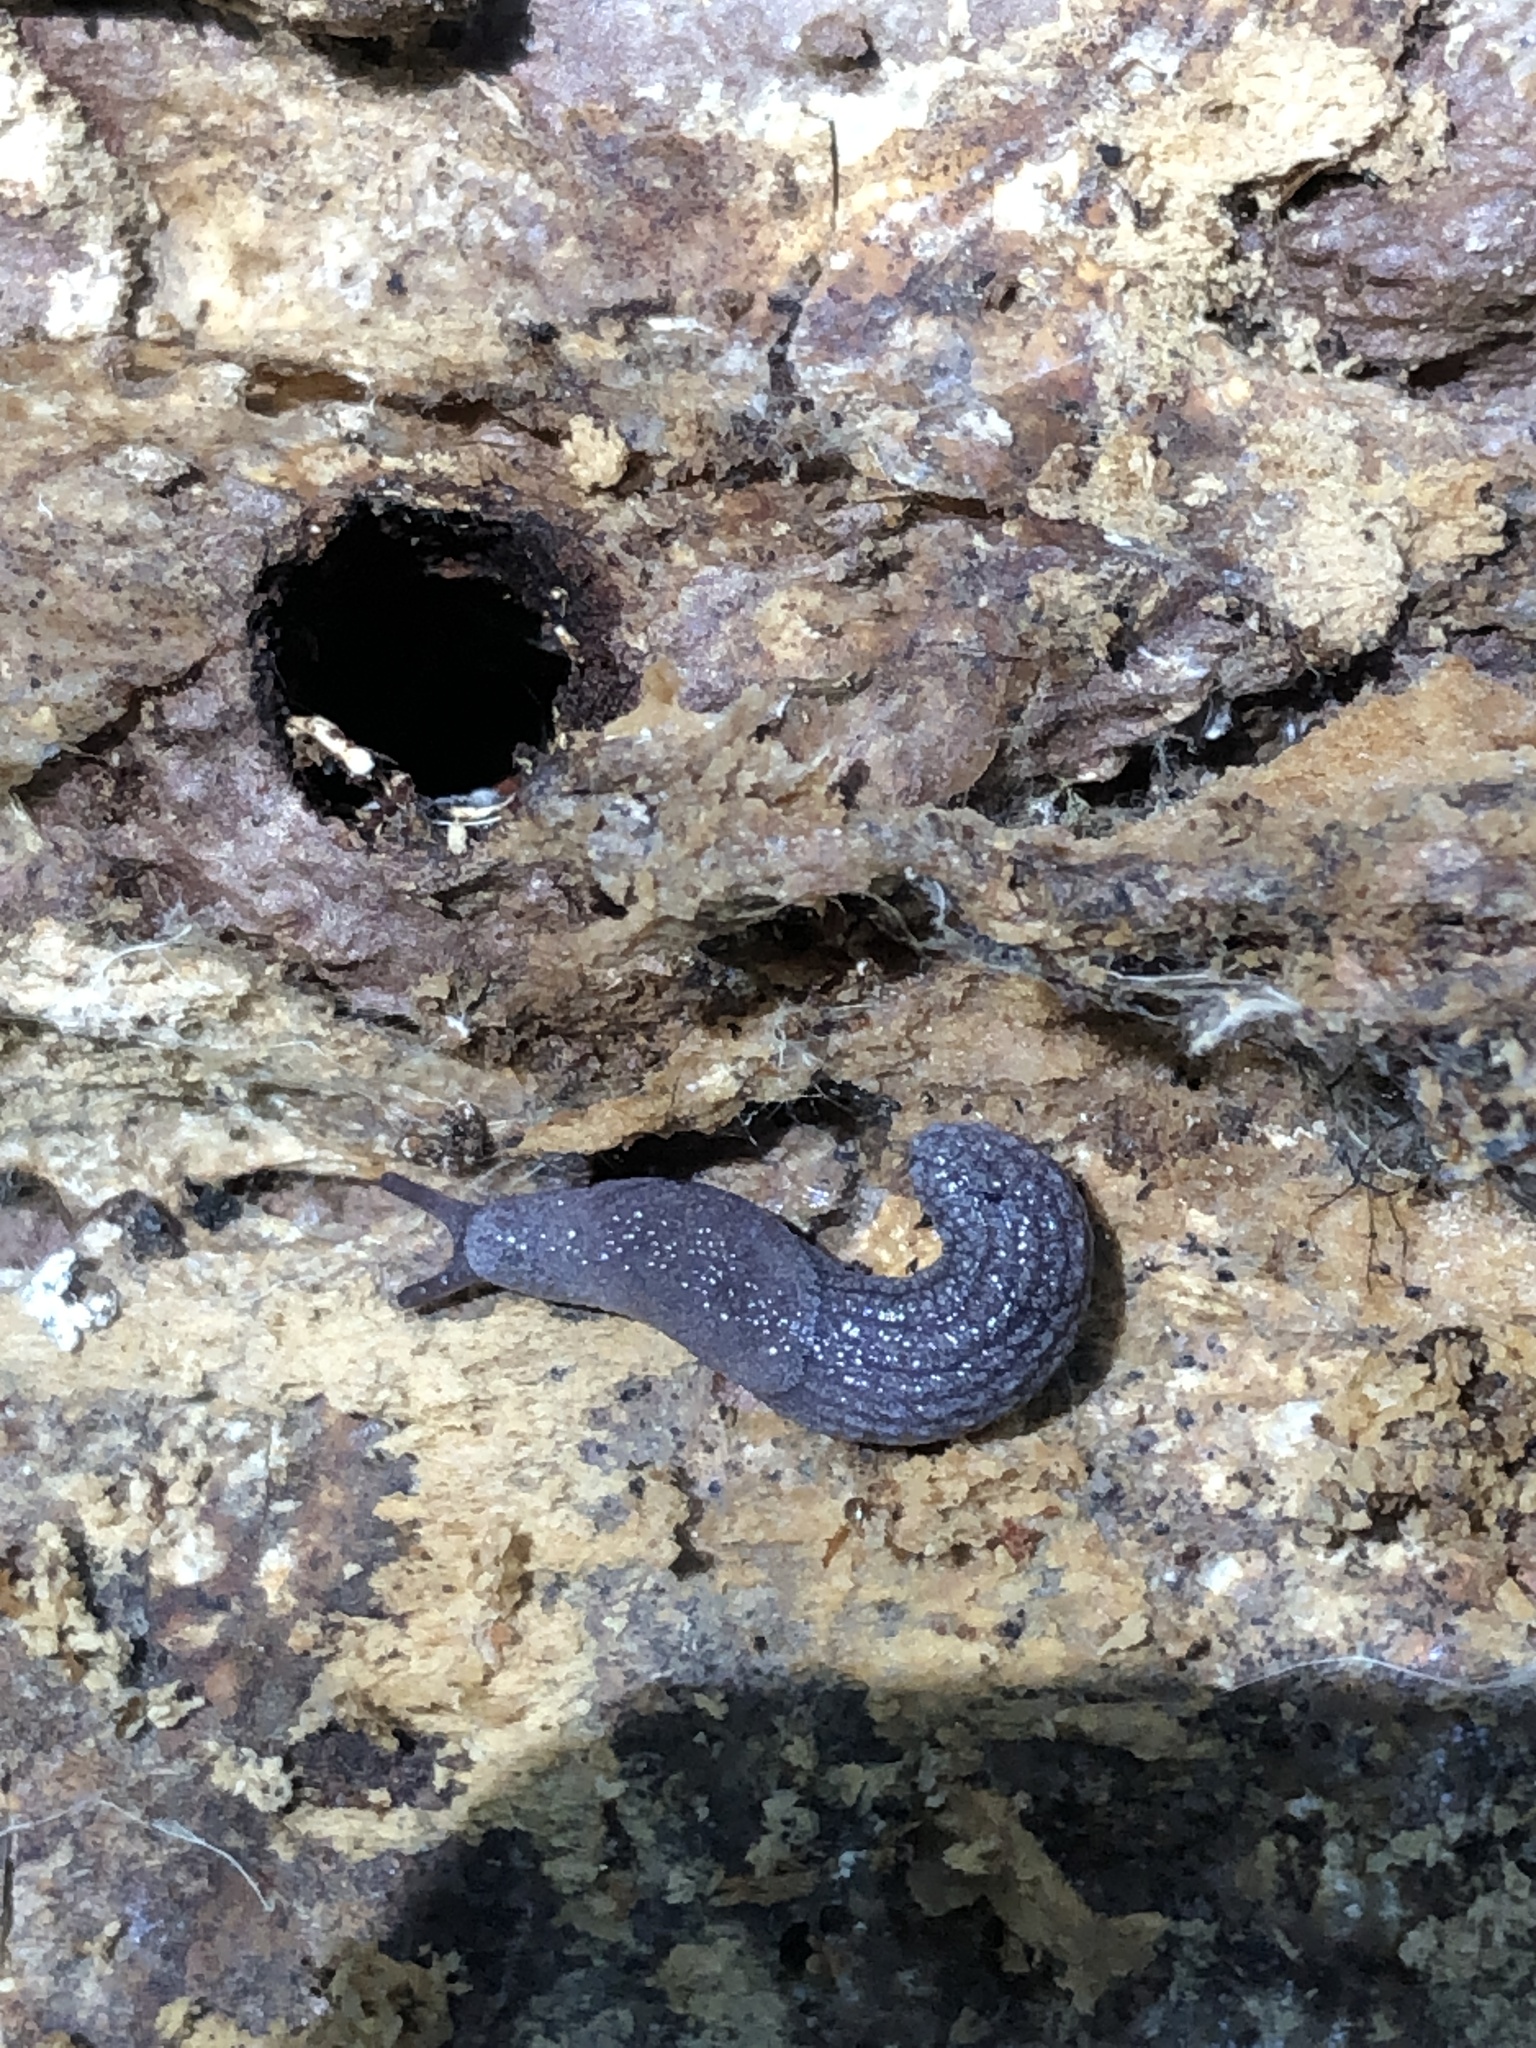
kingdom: Animalia
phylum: Mollusca
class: Gastropoda
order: Stylommatophora
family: Ariolimacidae
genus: Prophysaon
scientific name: Prophysaon coeruleum
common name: Blue-gray taildropper
